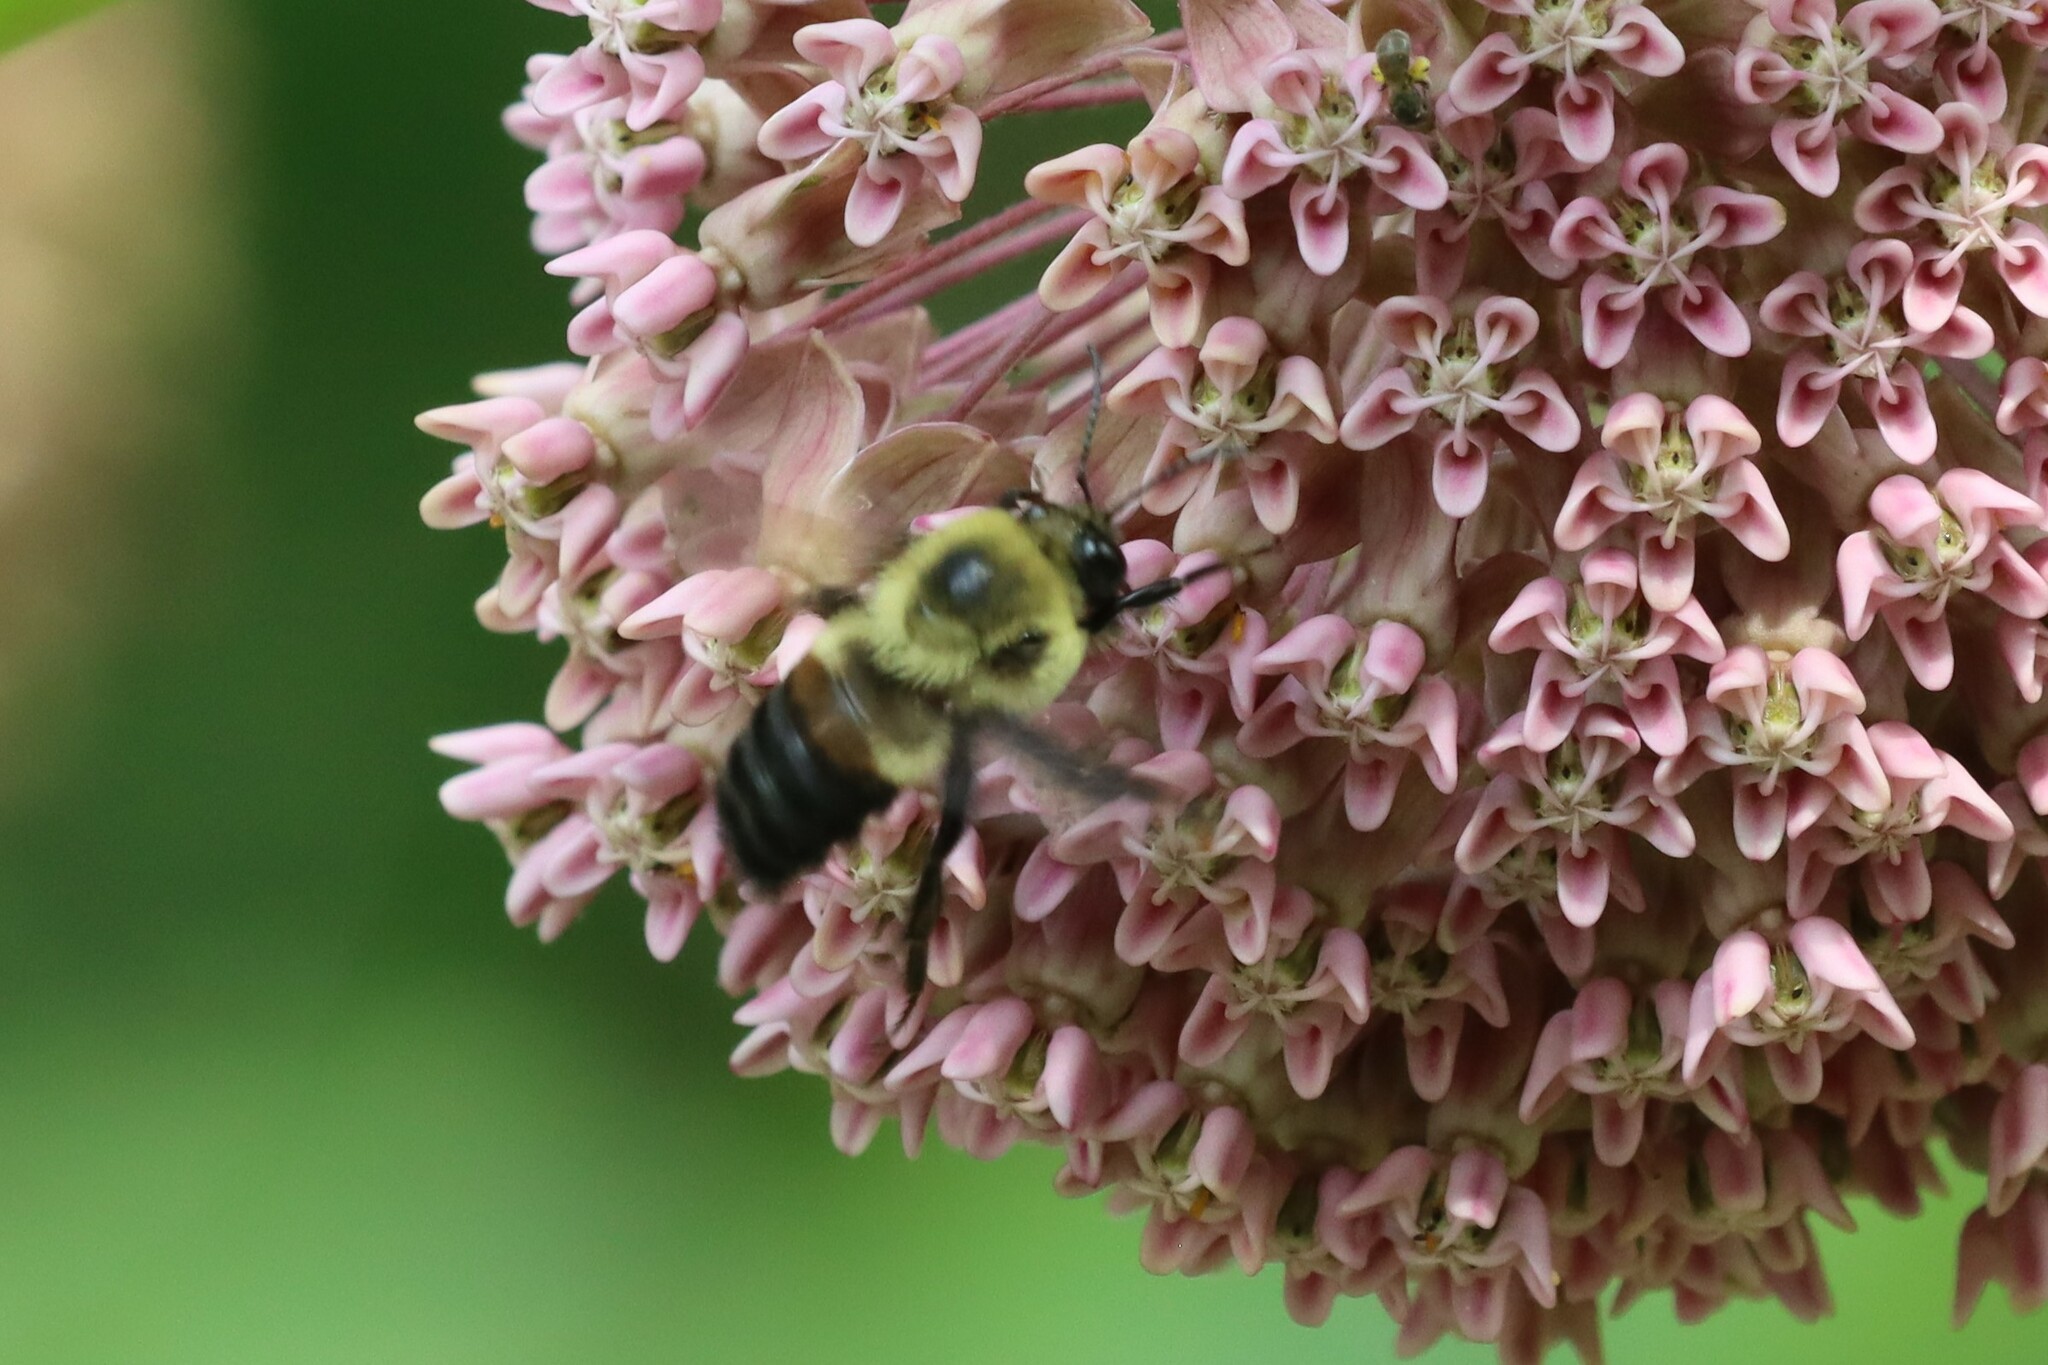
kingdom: Animalia
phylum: Arthropoda
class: Insecta
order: Hymenoptera
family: Apidae
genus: Bombus
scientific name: Bombus griseocollis
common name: Brown-belted bumble bee
